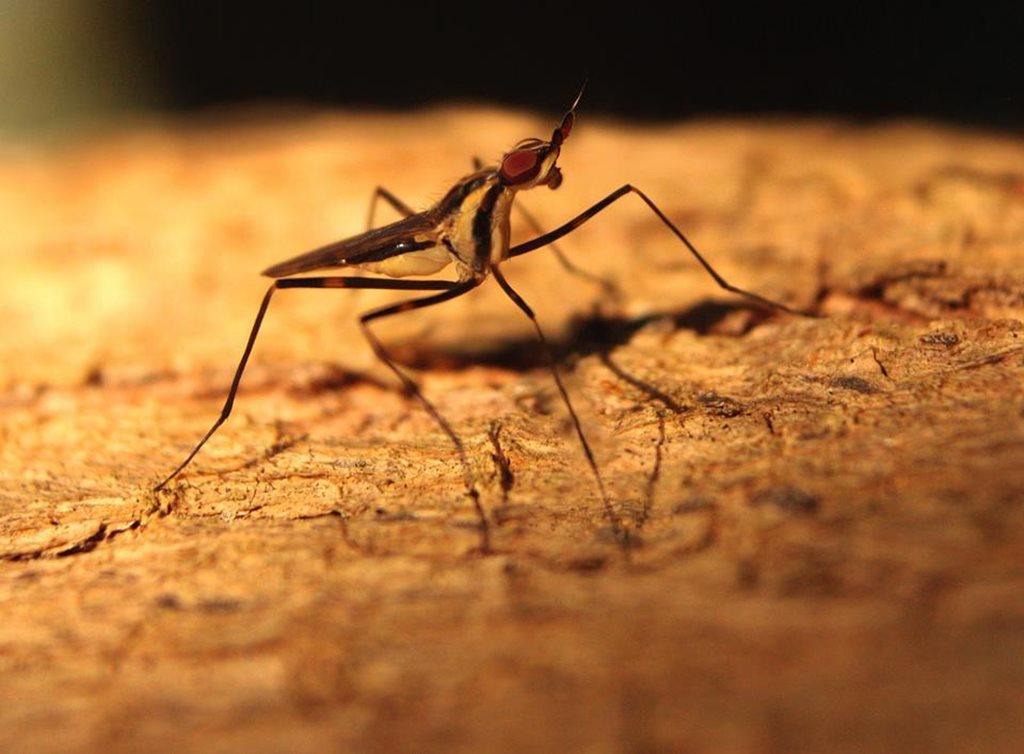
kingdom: Animalia
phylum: Arthropoda
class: Insecta
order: Diptera
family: Neriidae
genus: Derocephalus
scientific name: Derocephalus angusticollis
